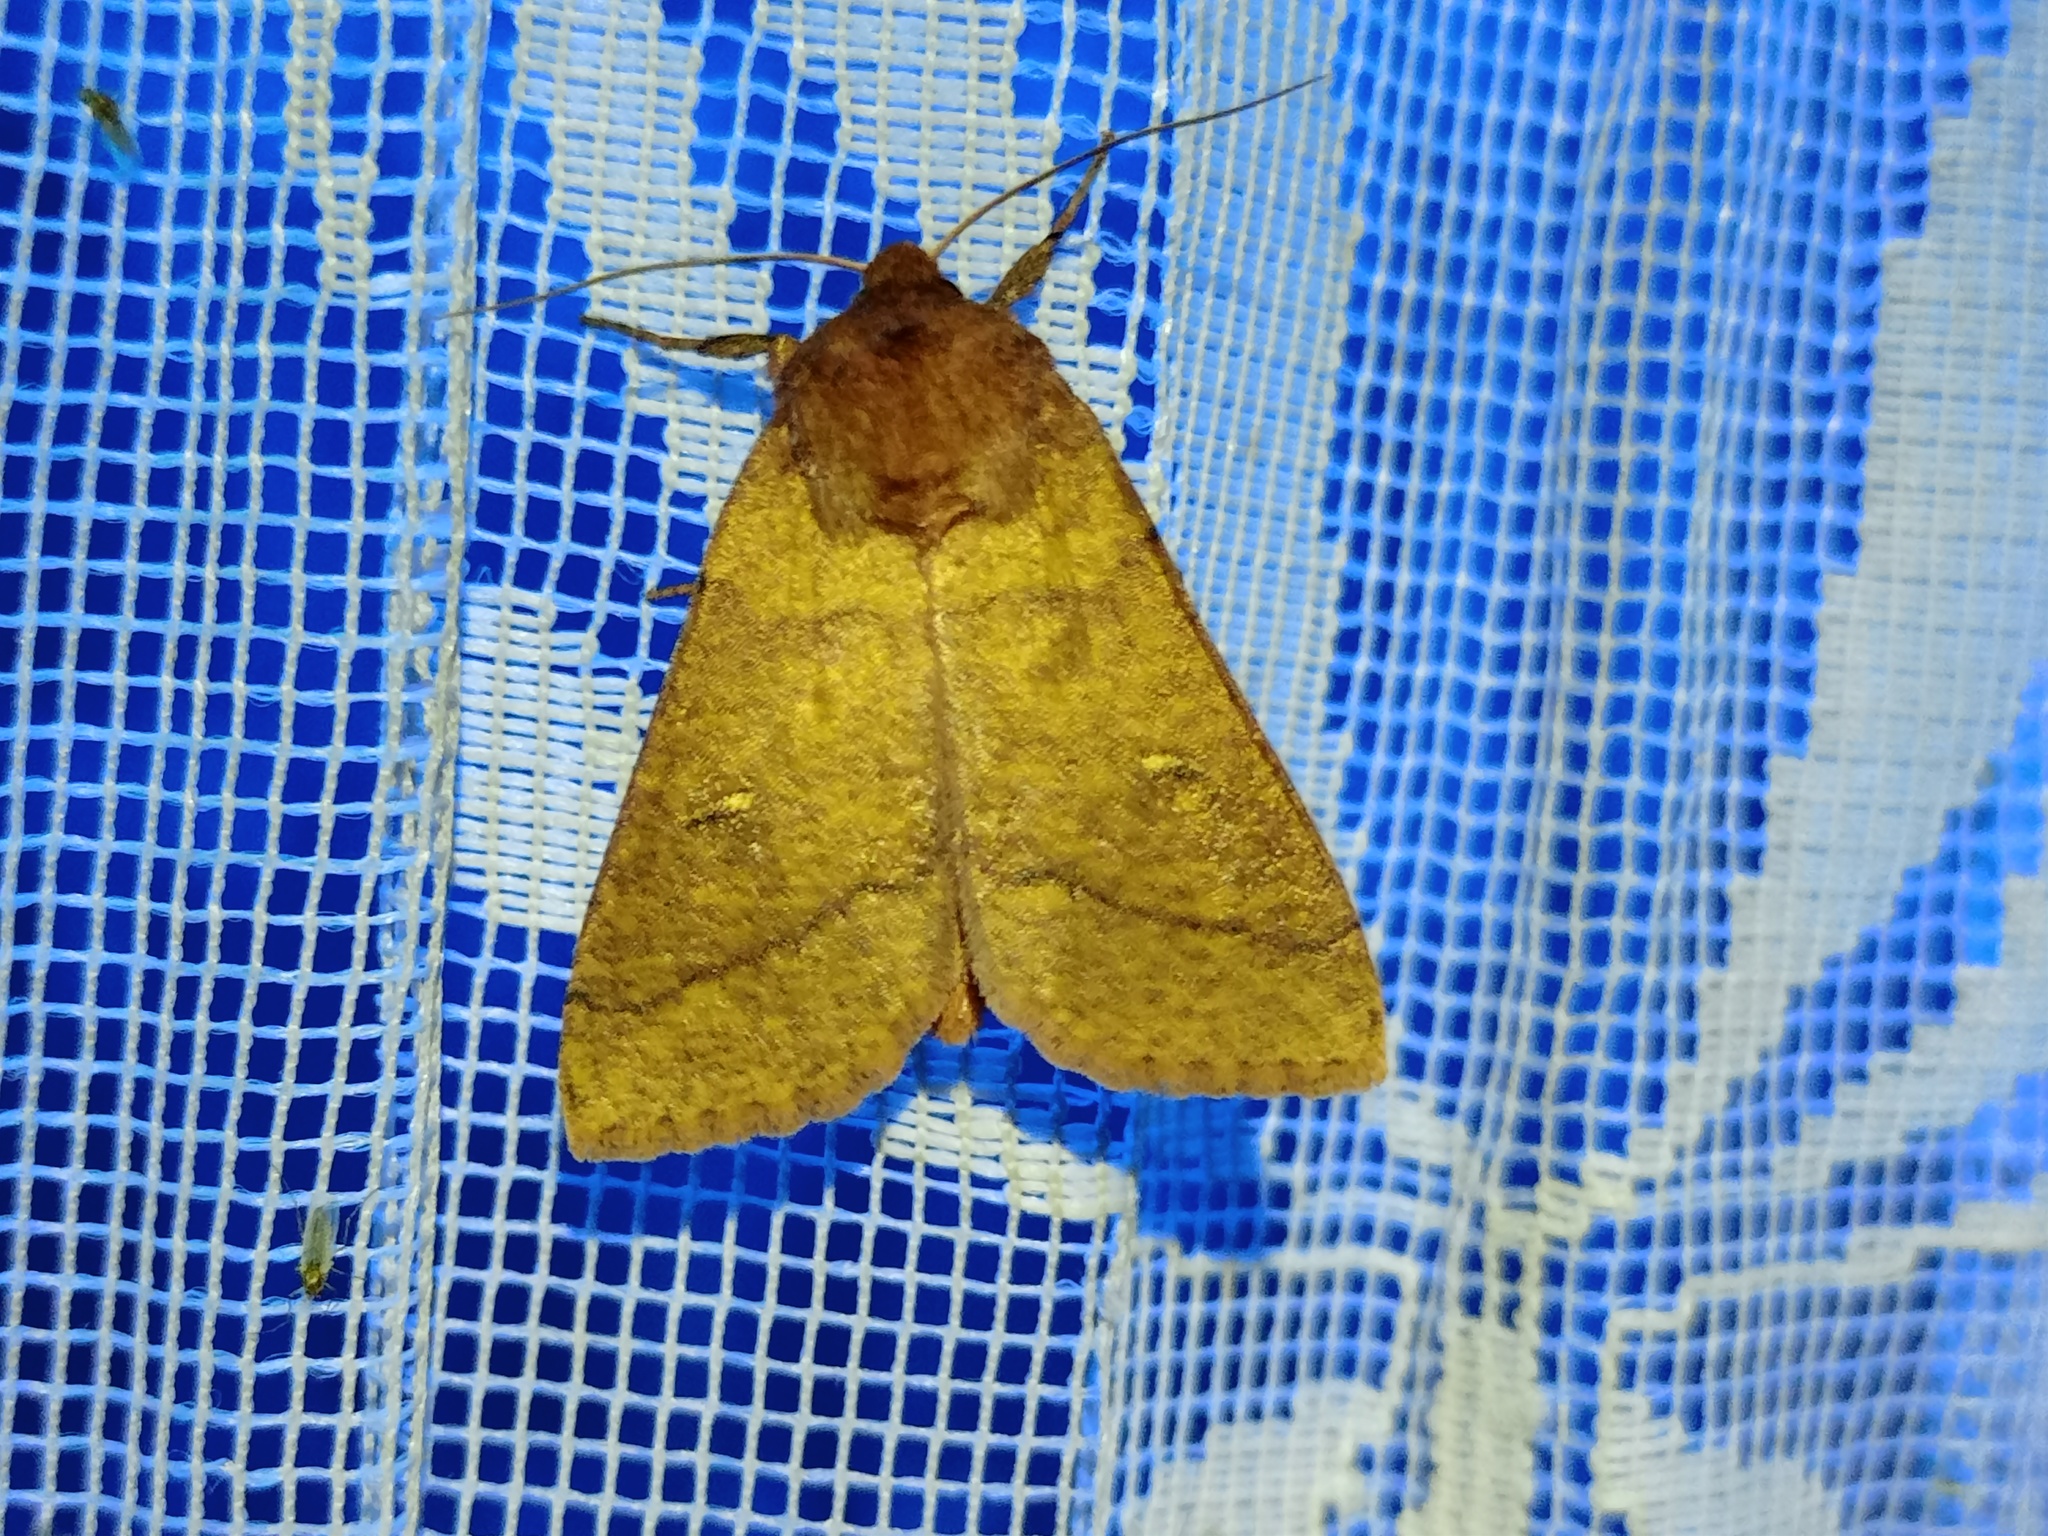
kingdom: Animalia
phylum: Arthropoda
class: Insecta
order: Lepidoptera
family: Noctuidae
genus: Mythimna
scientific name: Mythimna turca
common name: Double line
